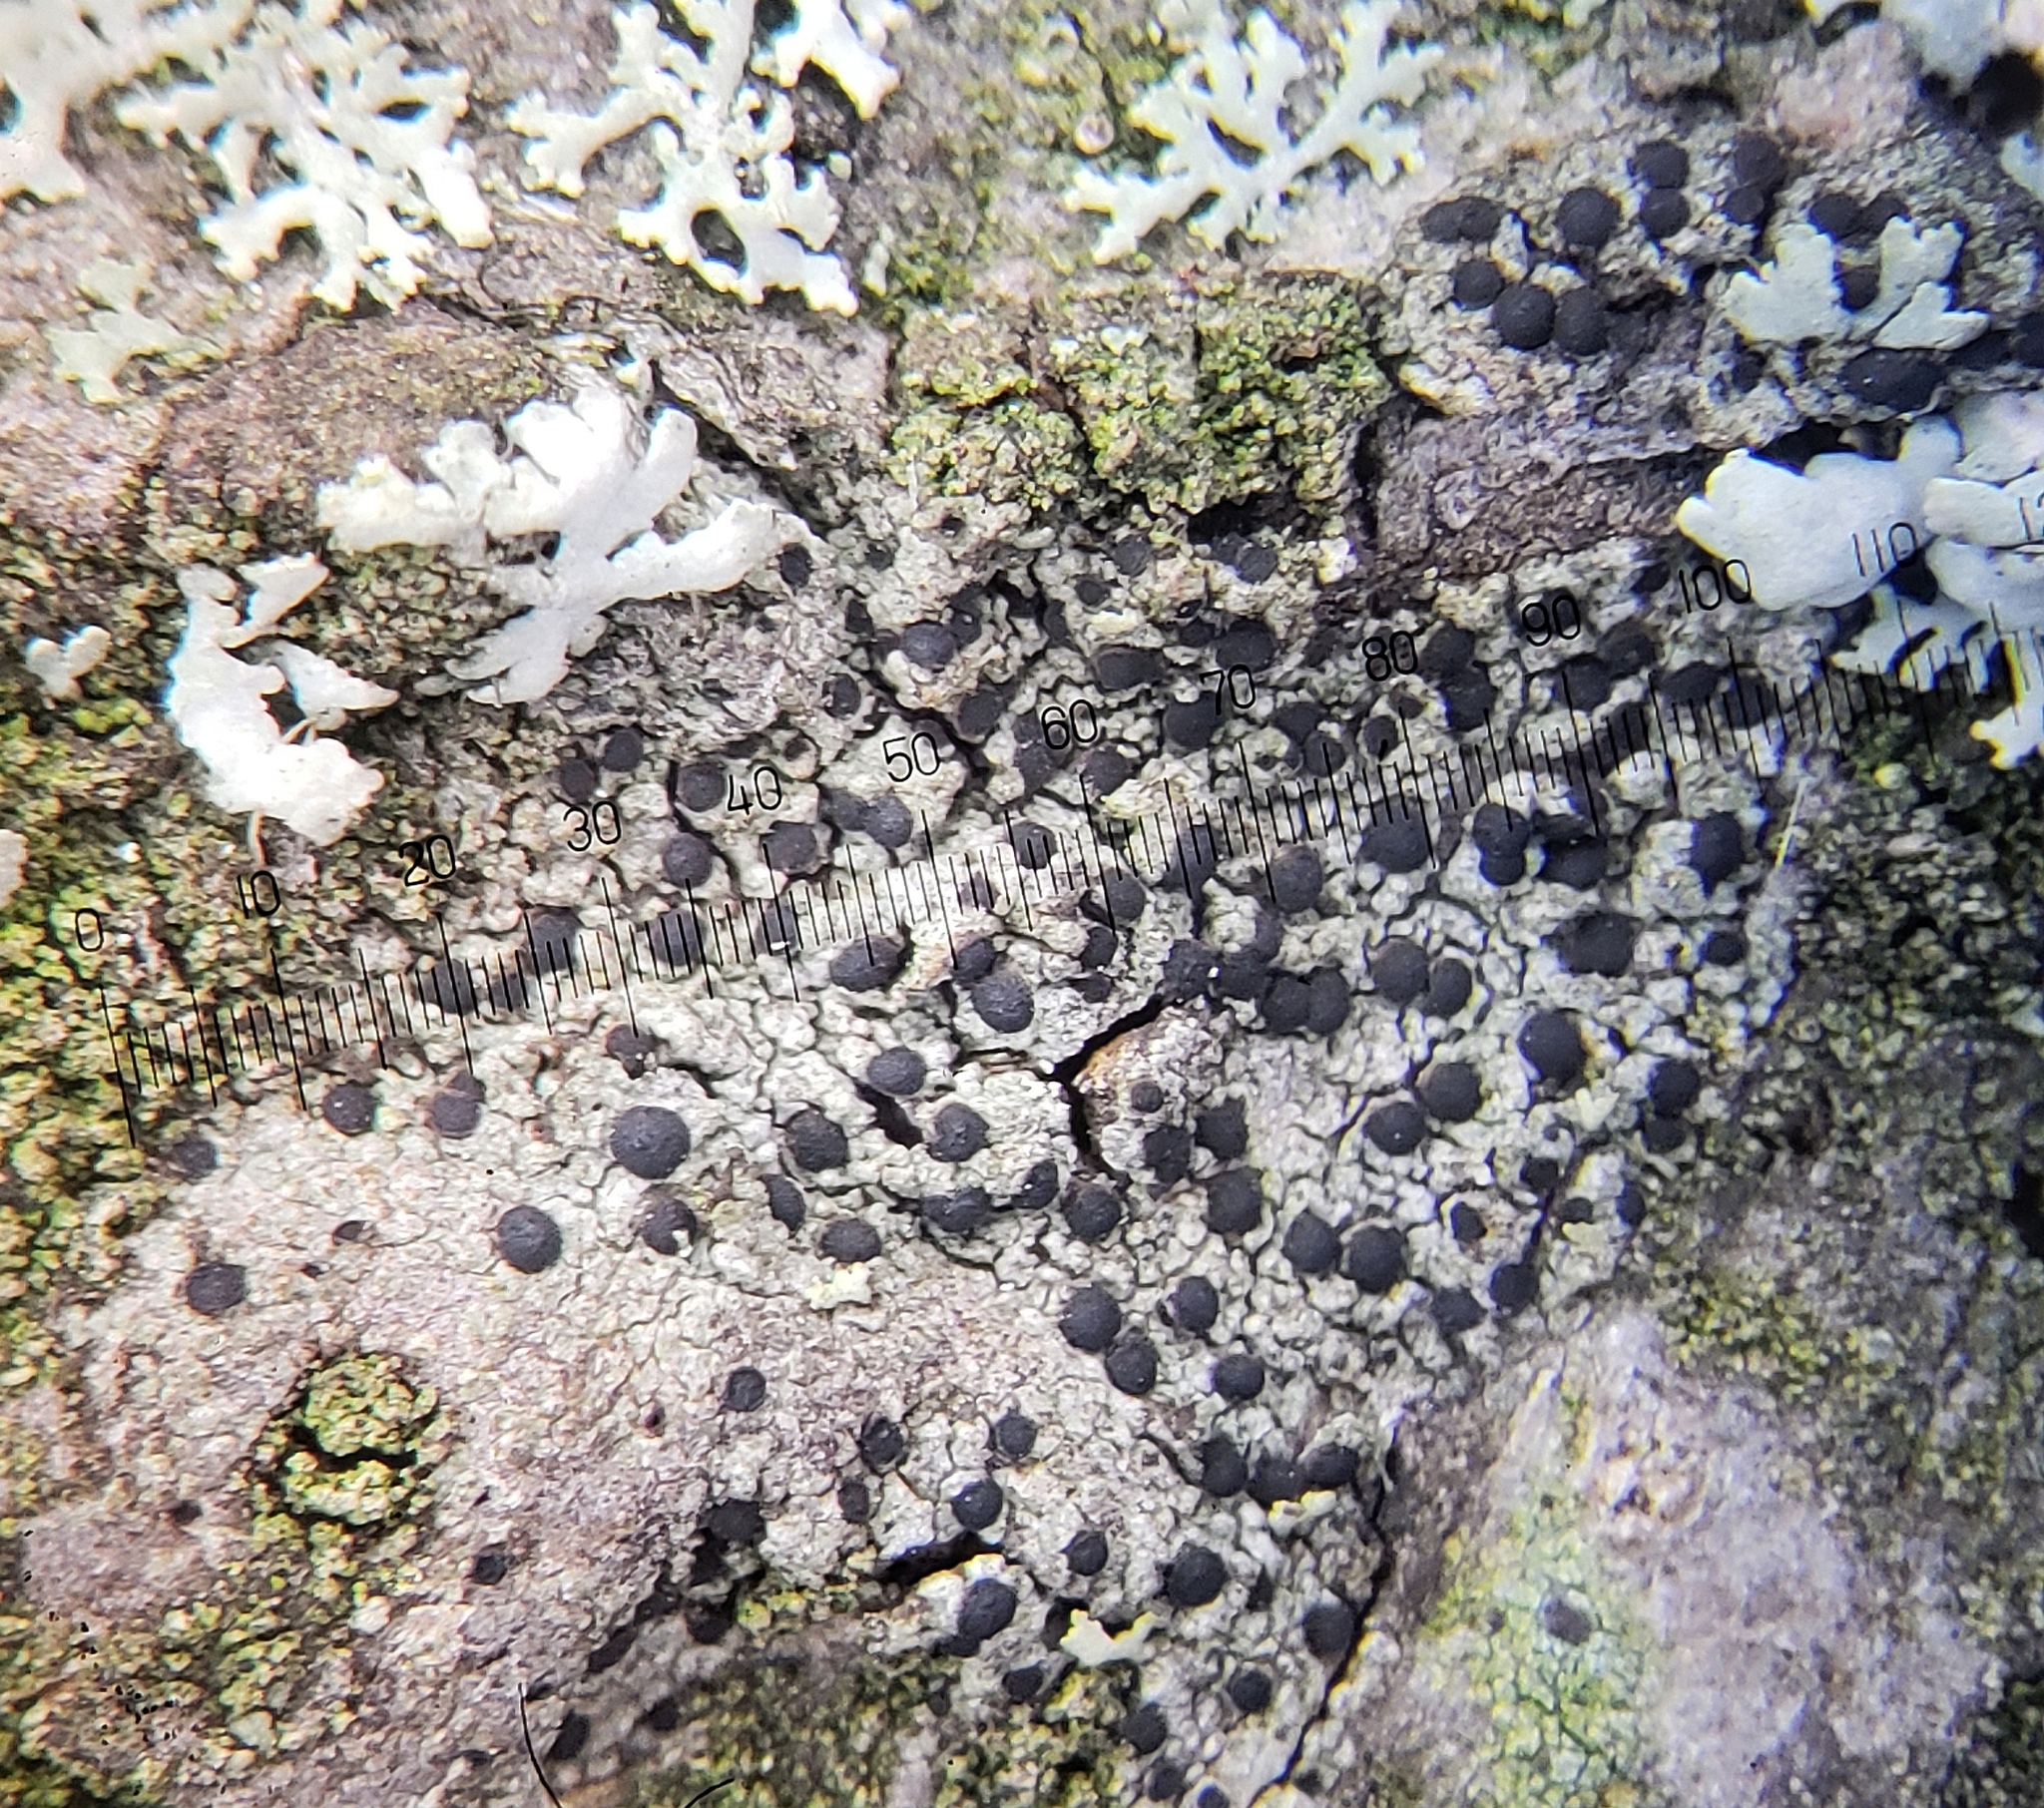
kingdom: Fungi
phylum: Ascomycota
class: Lecanoromycetes
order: Caliciales
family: Caliciaceae
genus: Amandinea
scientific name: Amandinea punctata
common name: Tiny button lichen
